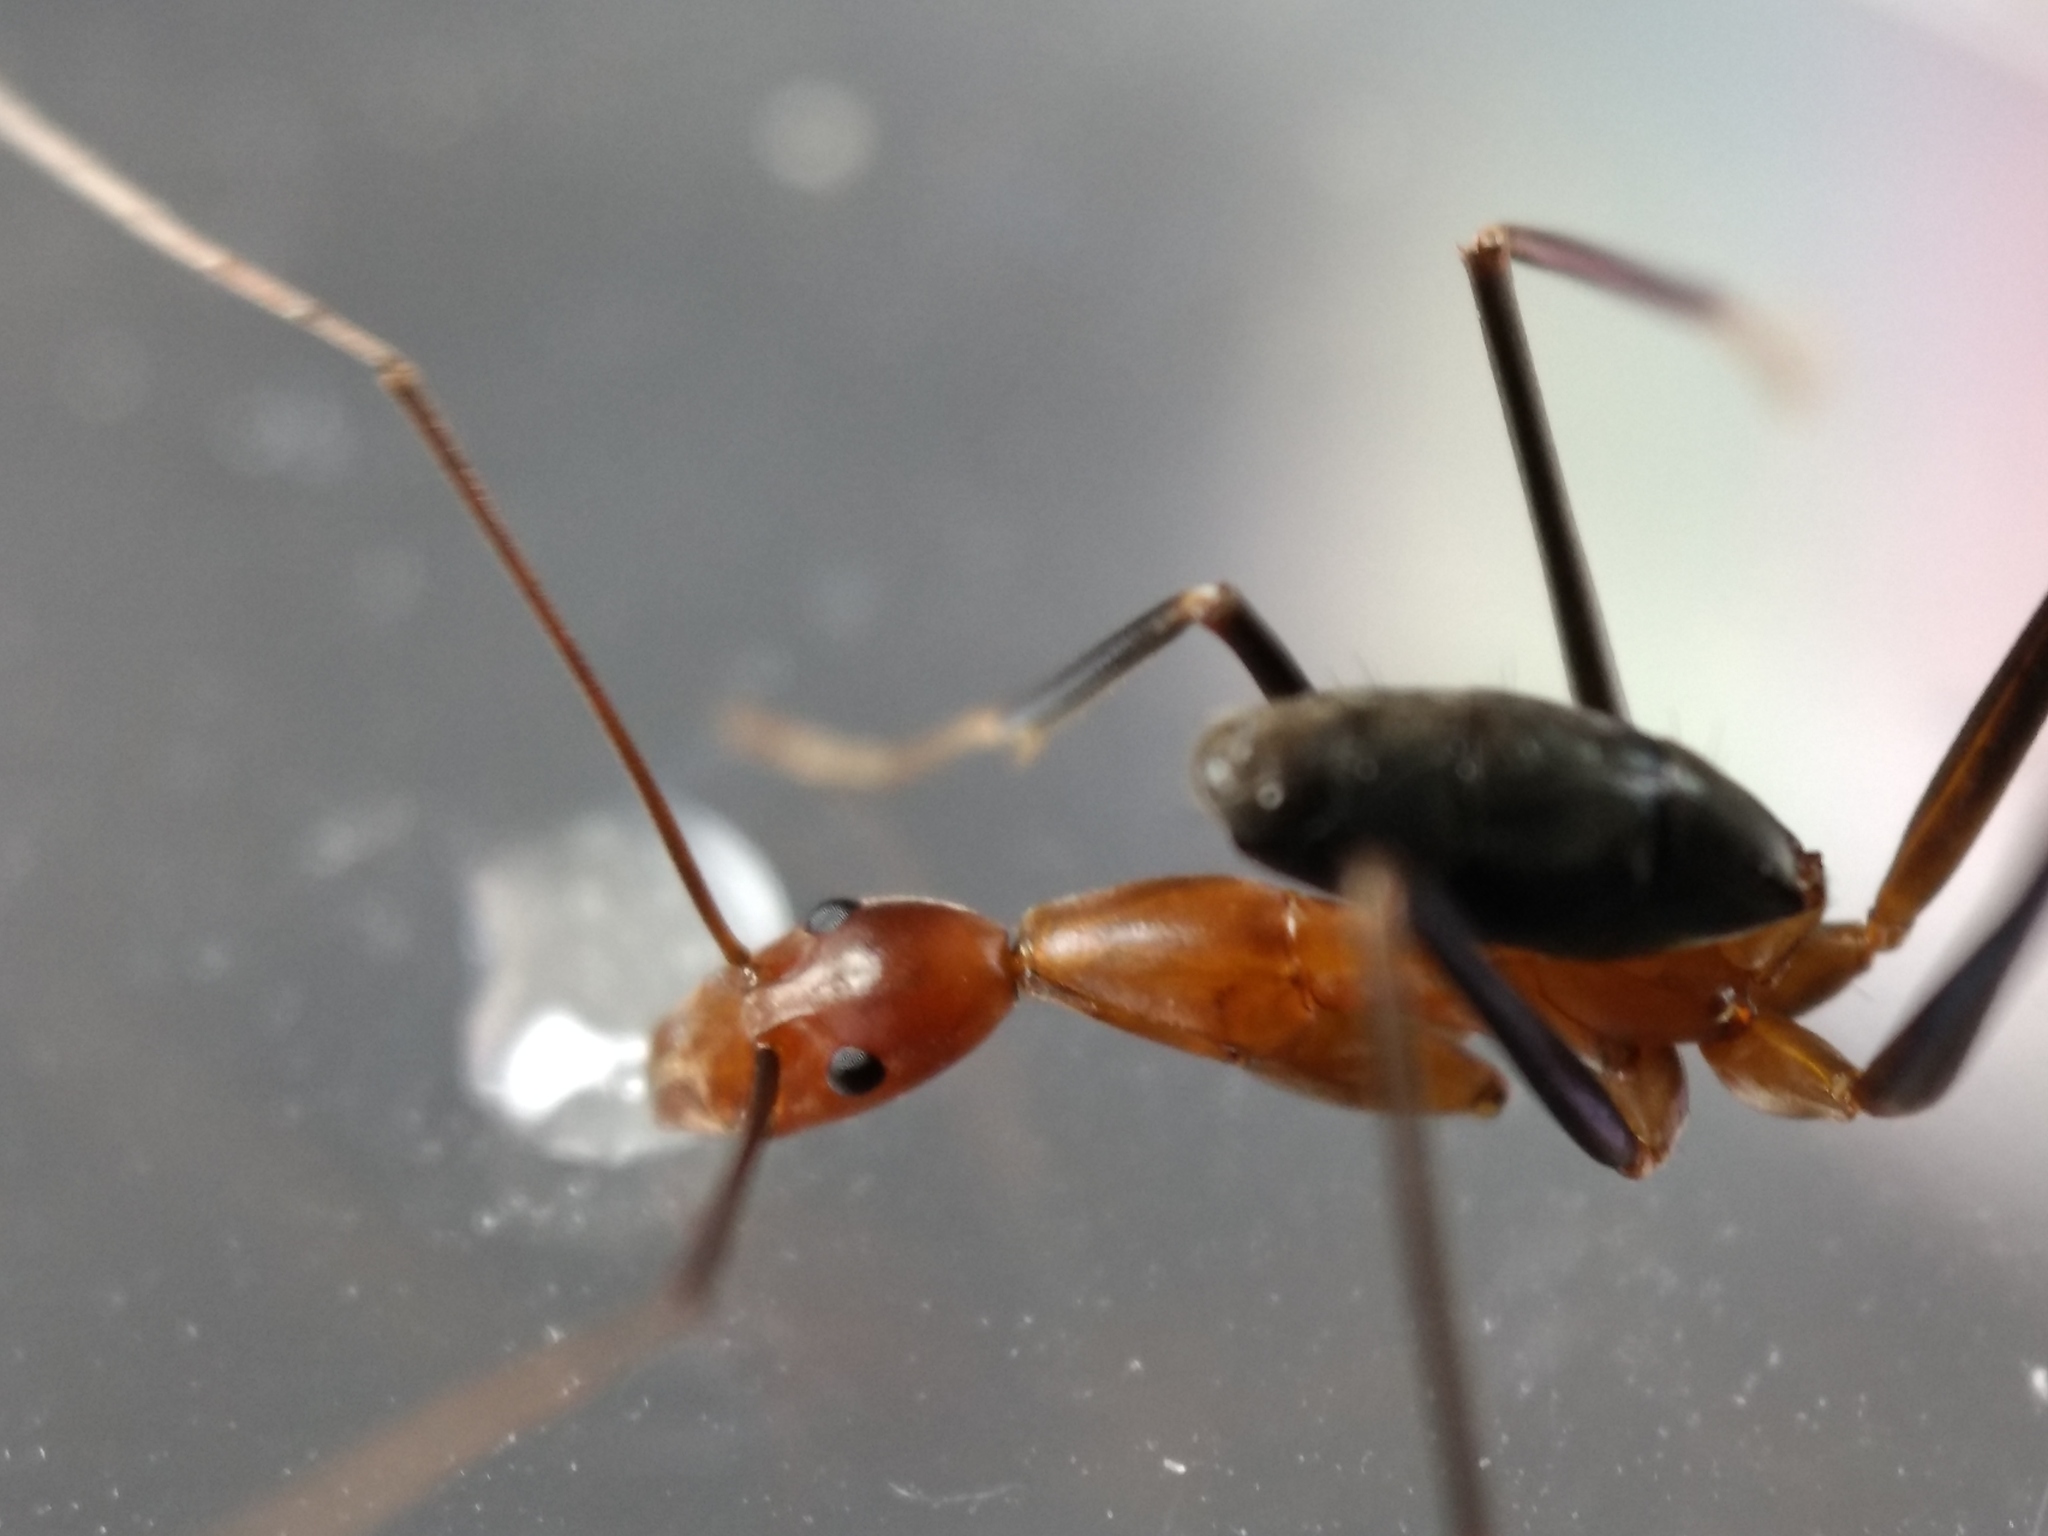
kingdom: Animalia
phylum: Arthropoda
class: Insecta
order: Hymenoptera
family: Formicidae
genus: Leptomyrmex
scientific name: Leptomyrmex varians
